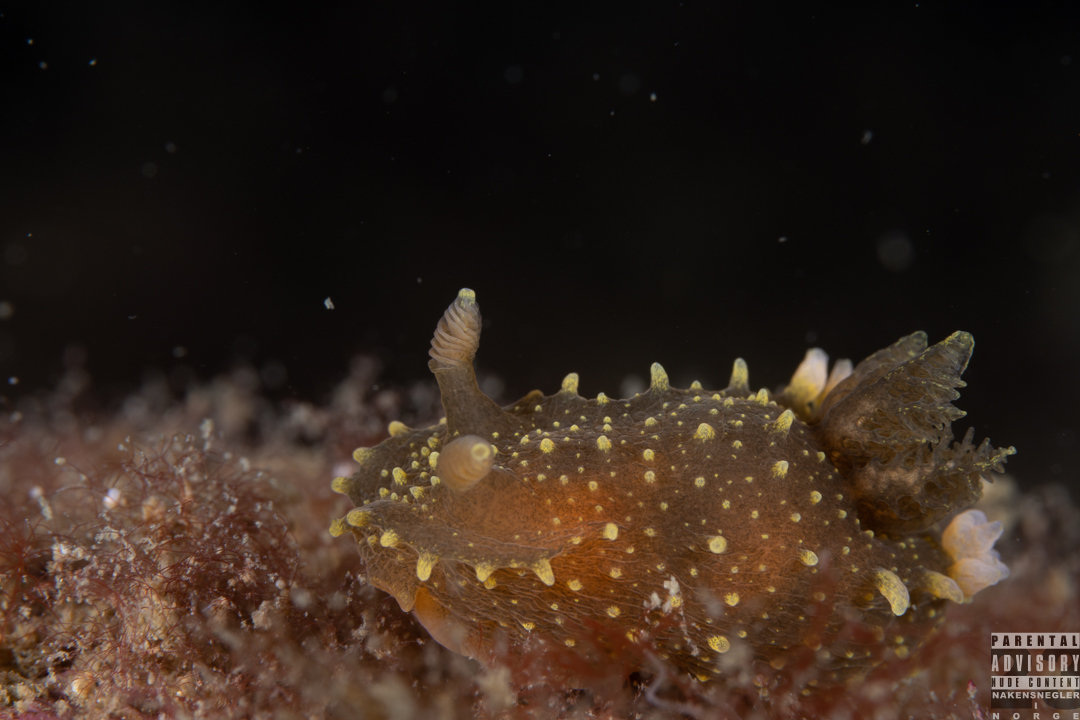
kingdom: Animalia
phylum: Mollusca
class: Gastropoda
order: Nudibranchia
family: Polyceridae
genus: Palio
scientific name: Palio dubia
